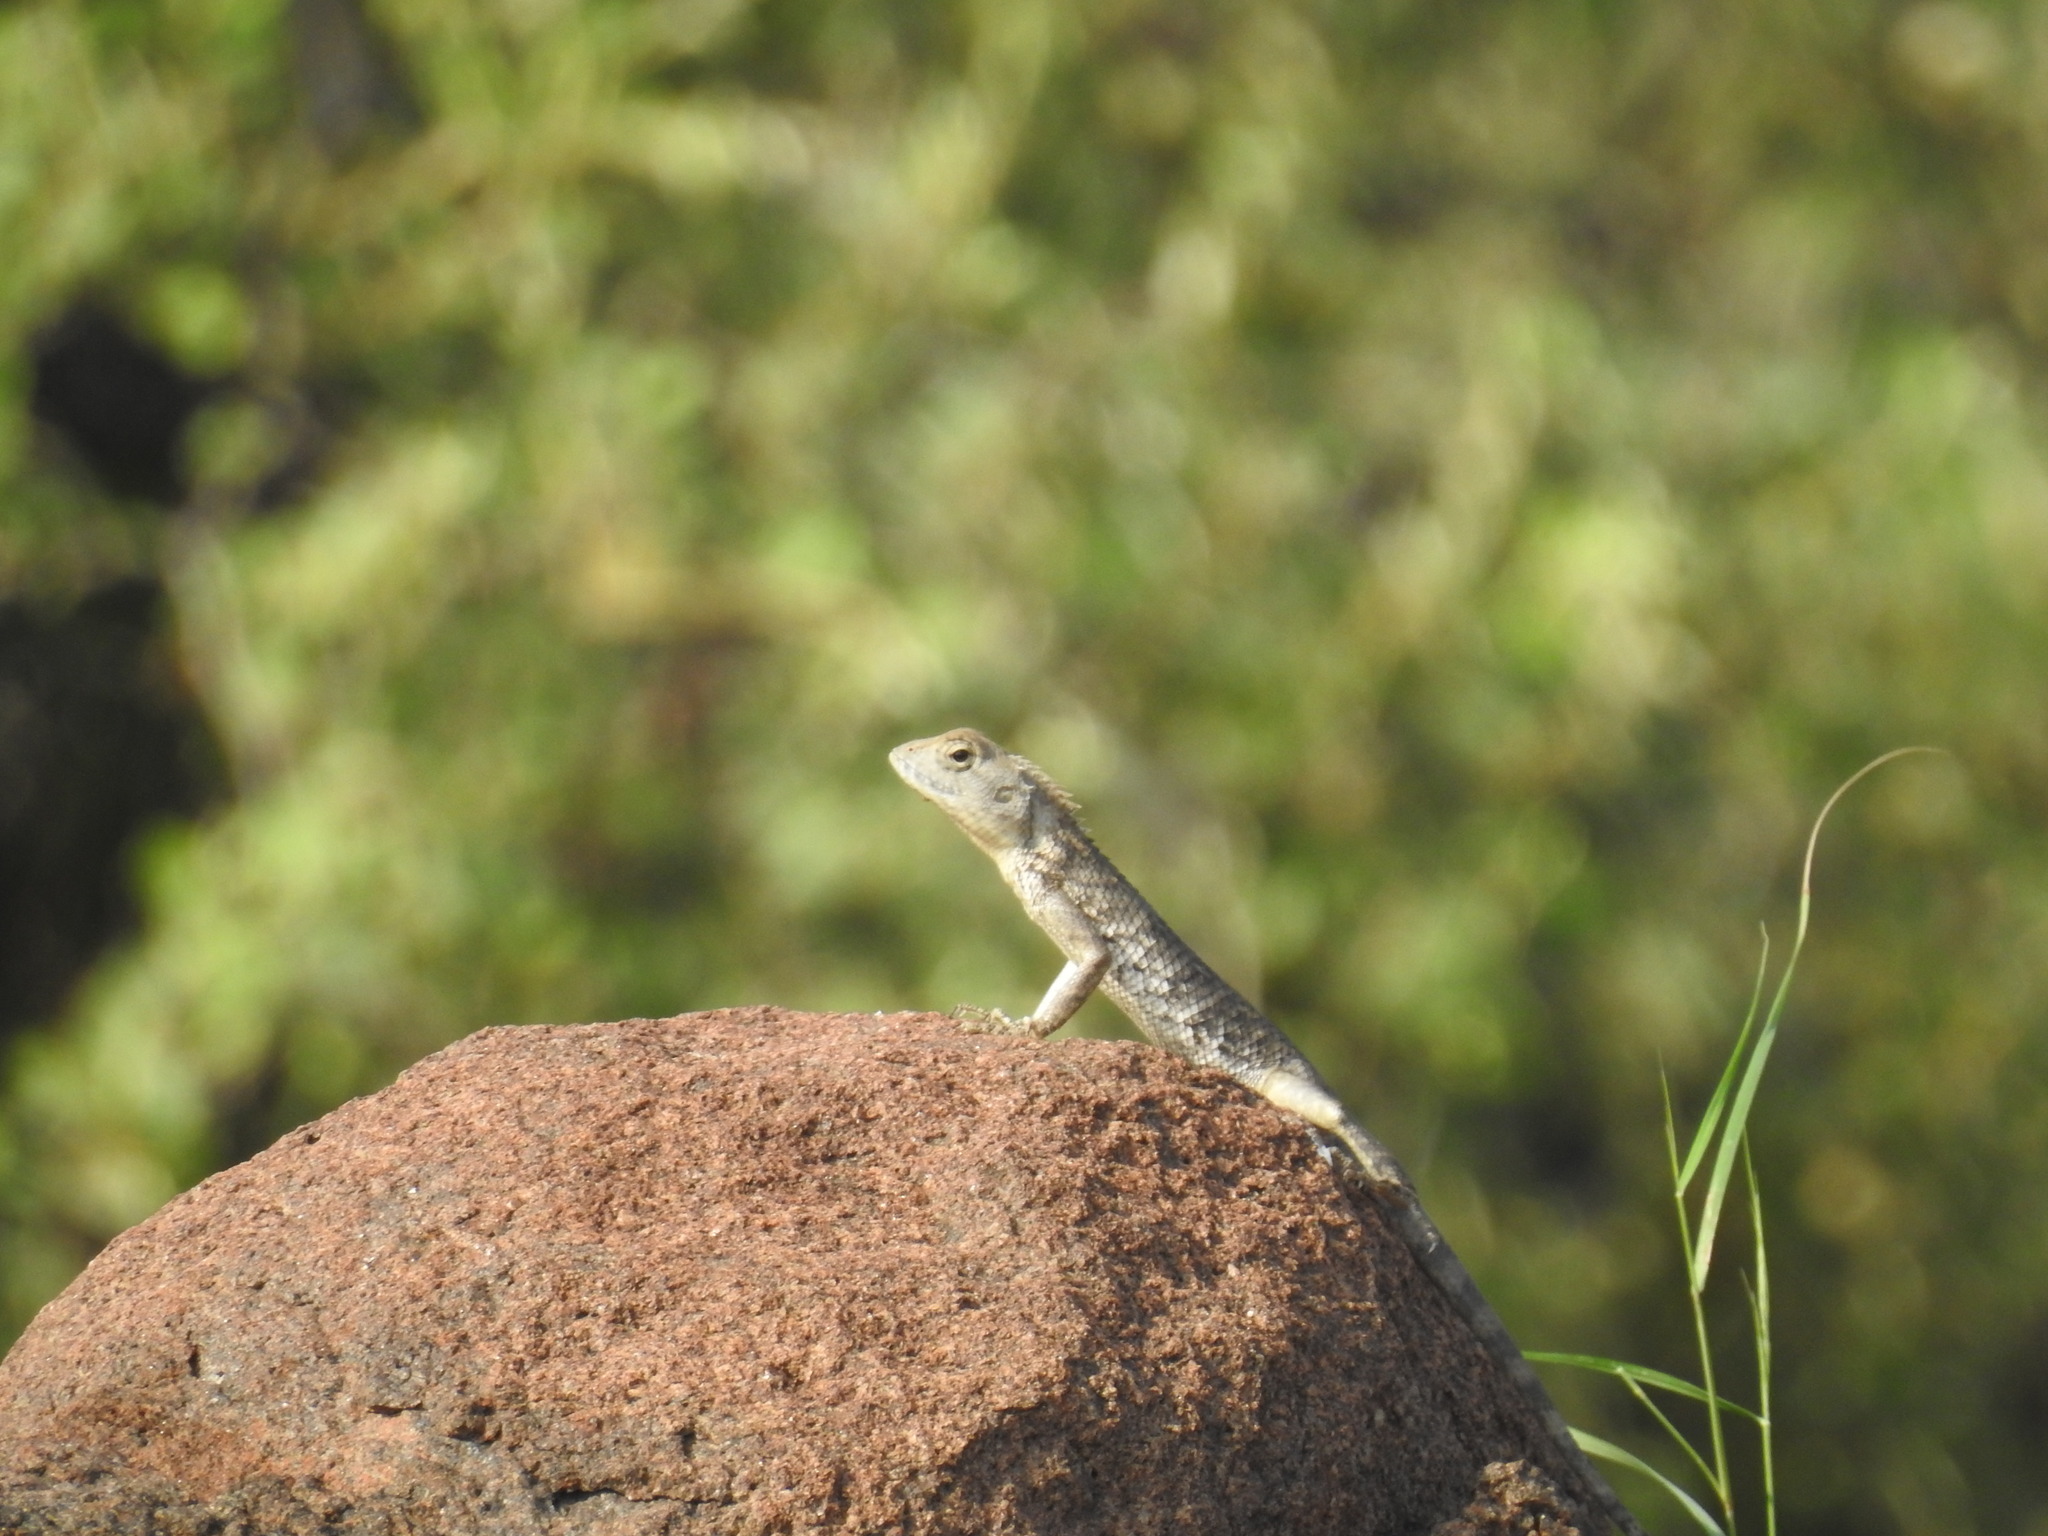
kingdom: Animalia
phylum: Chordata
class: Squamata
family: Agamidae
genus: Calotes
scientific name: Calotes versicolor
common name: Oriental garden lizard
